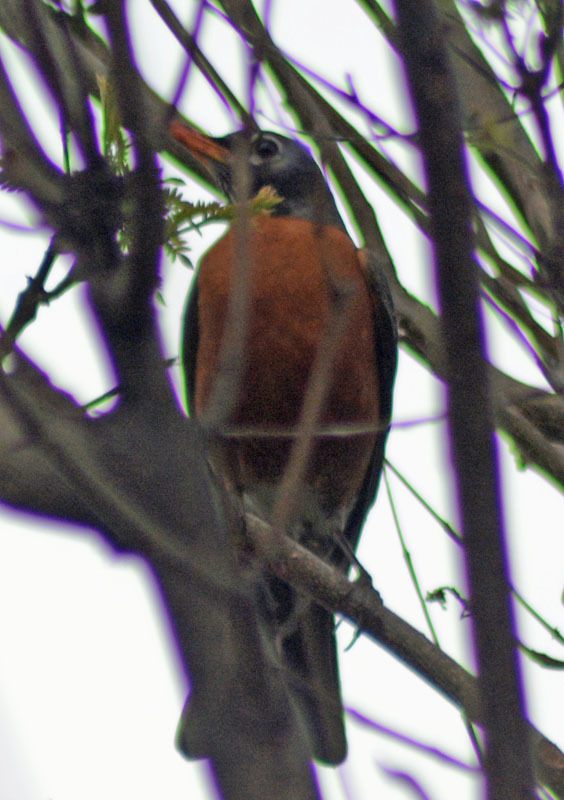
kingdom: Animalia
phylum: Chordata
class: Aves
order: Passeriformes
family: Turdidae
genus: Turdus
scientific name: Turdus migratorius
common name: American robin
